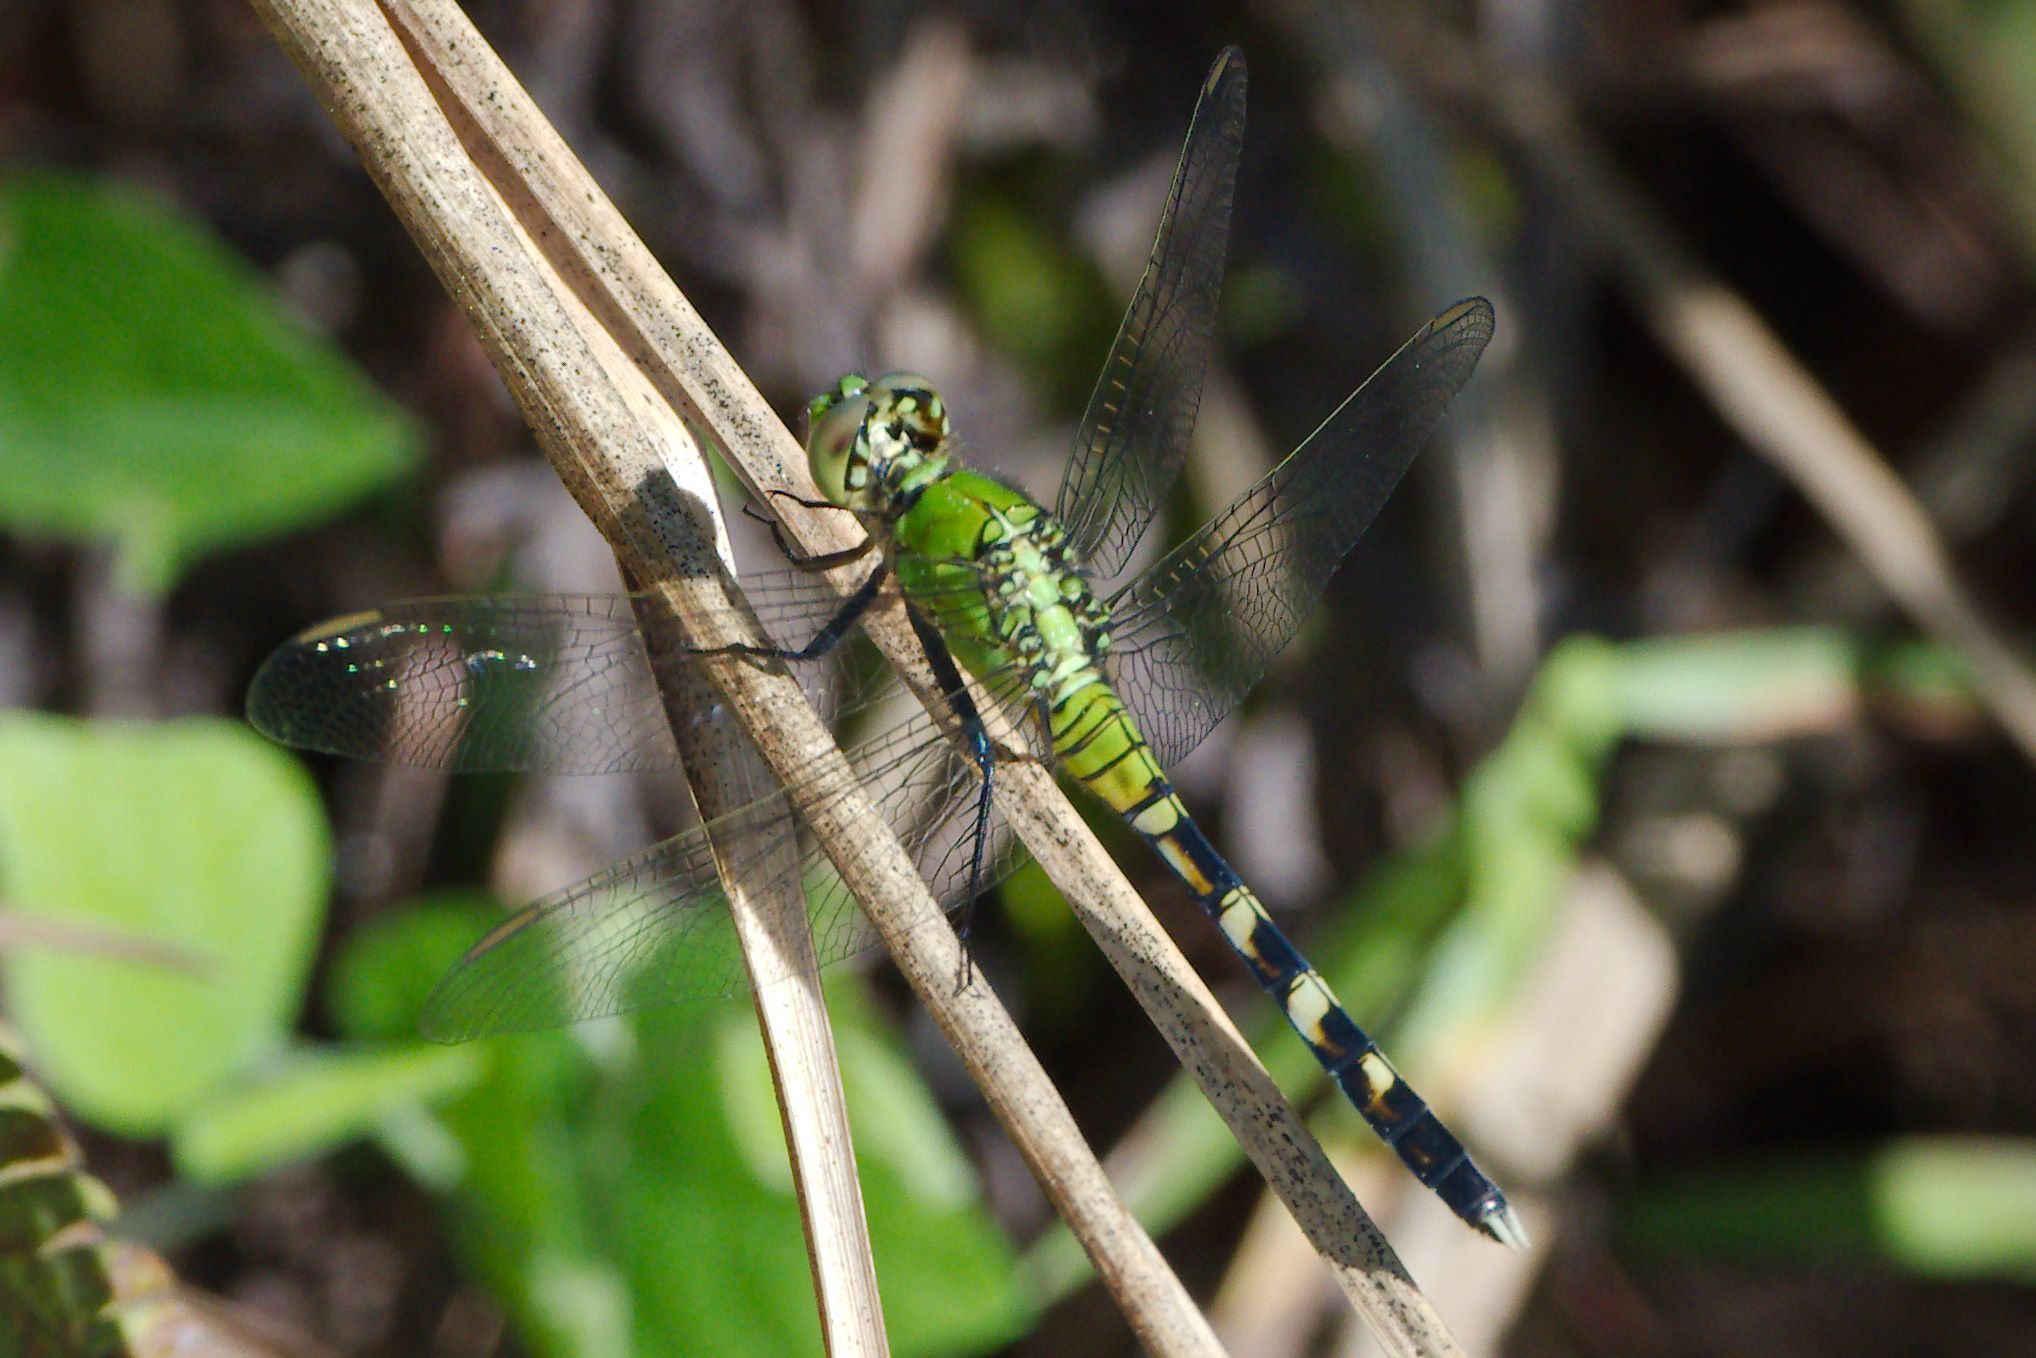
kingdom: Animalia
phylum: Arthropoda
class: Insecta
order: Odonata
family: Libellulidae
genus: Erythemis
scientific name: Erythemis simplicicollis
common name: Eastern pondhawk
